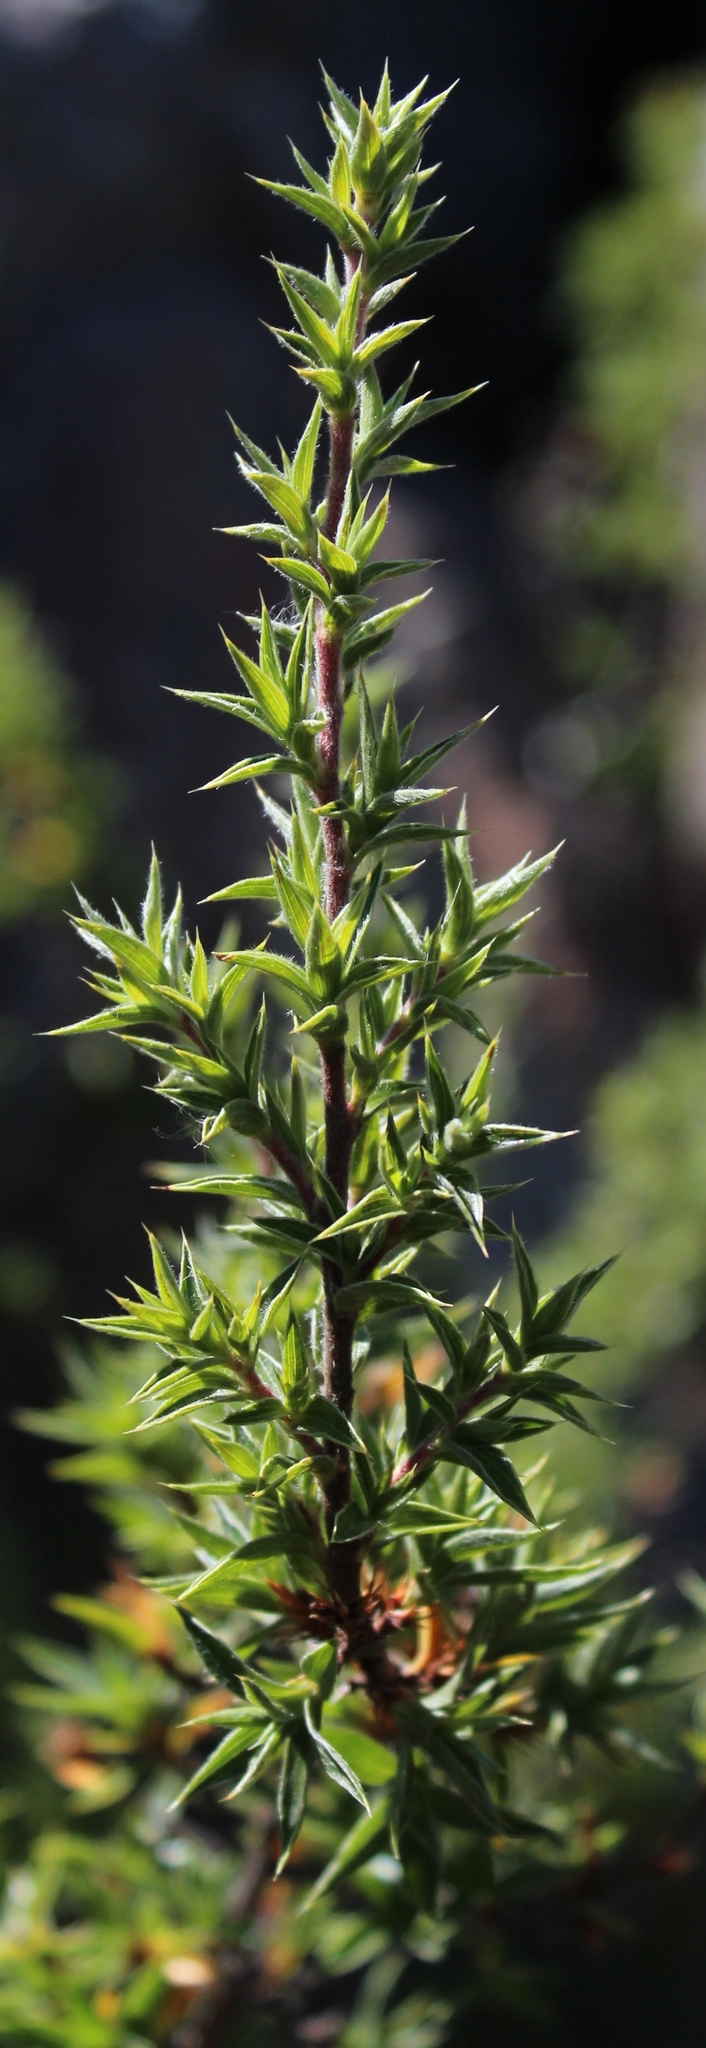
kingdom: Plantae
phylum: Tracheophyta
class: Magnoliopsida
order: Rosales
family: Rosaceae
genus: Cliffortia
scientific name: Cliffortia ruscifolia
